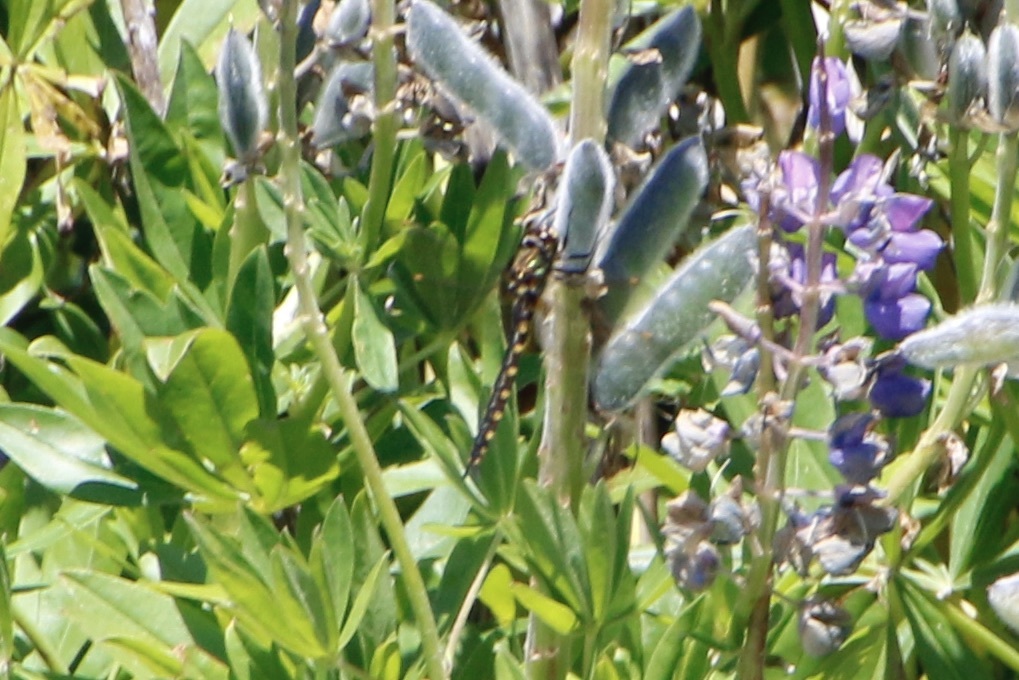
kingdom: Animalia
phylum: Arthropoda
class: Insecta
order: Odonata
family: Corduliidae
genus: Procordulia
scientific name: Procordulia grayi
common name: Yellow spotted dragonfly
